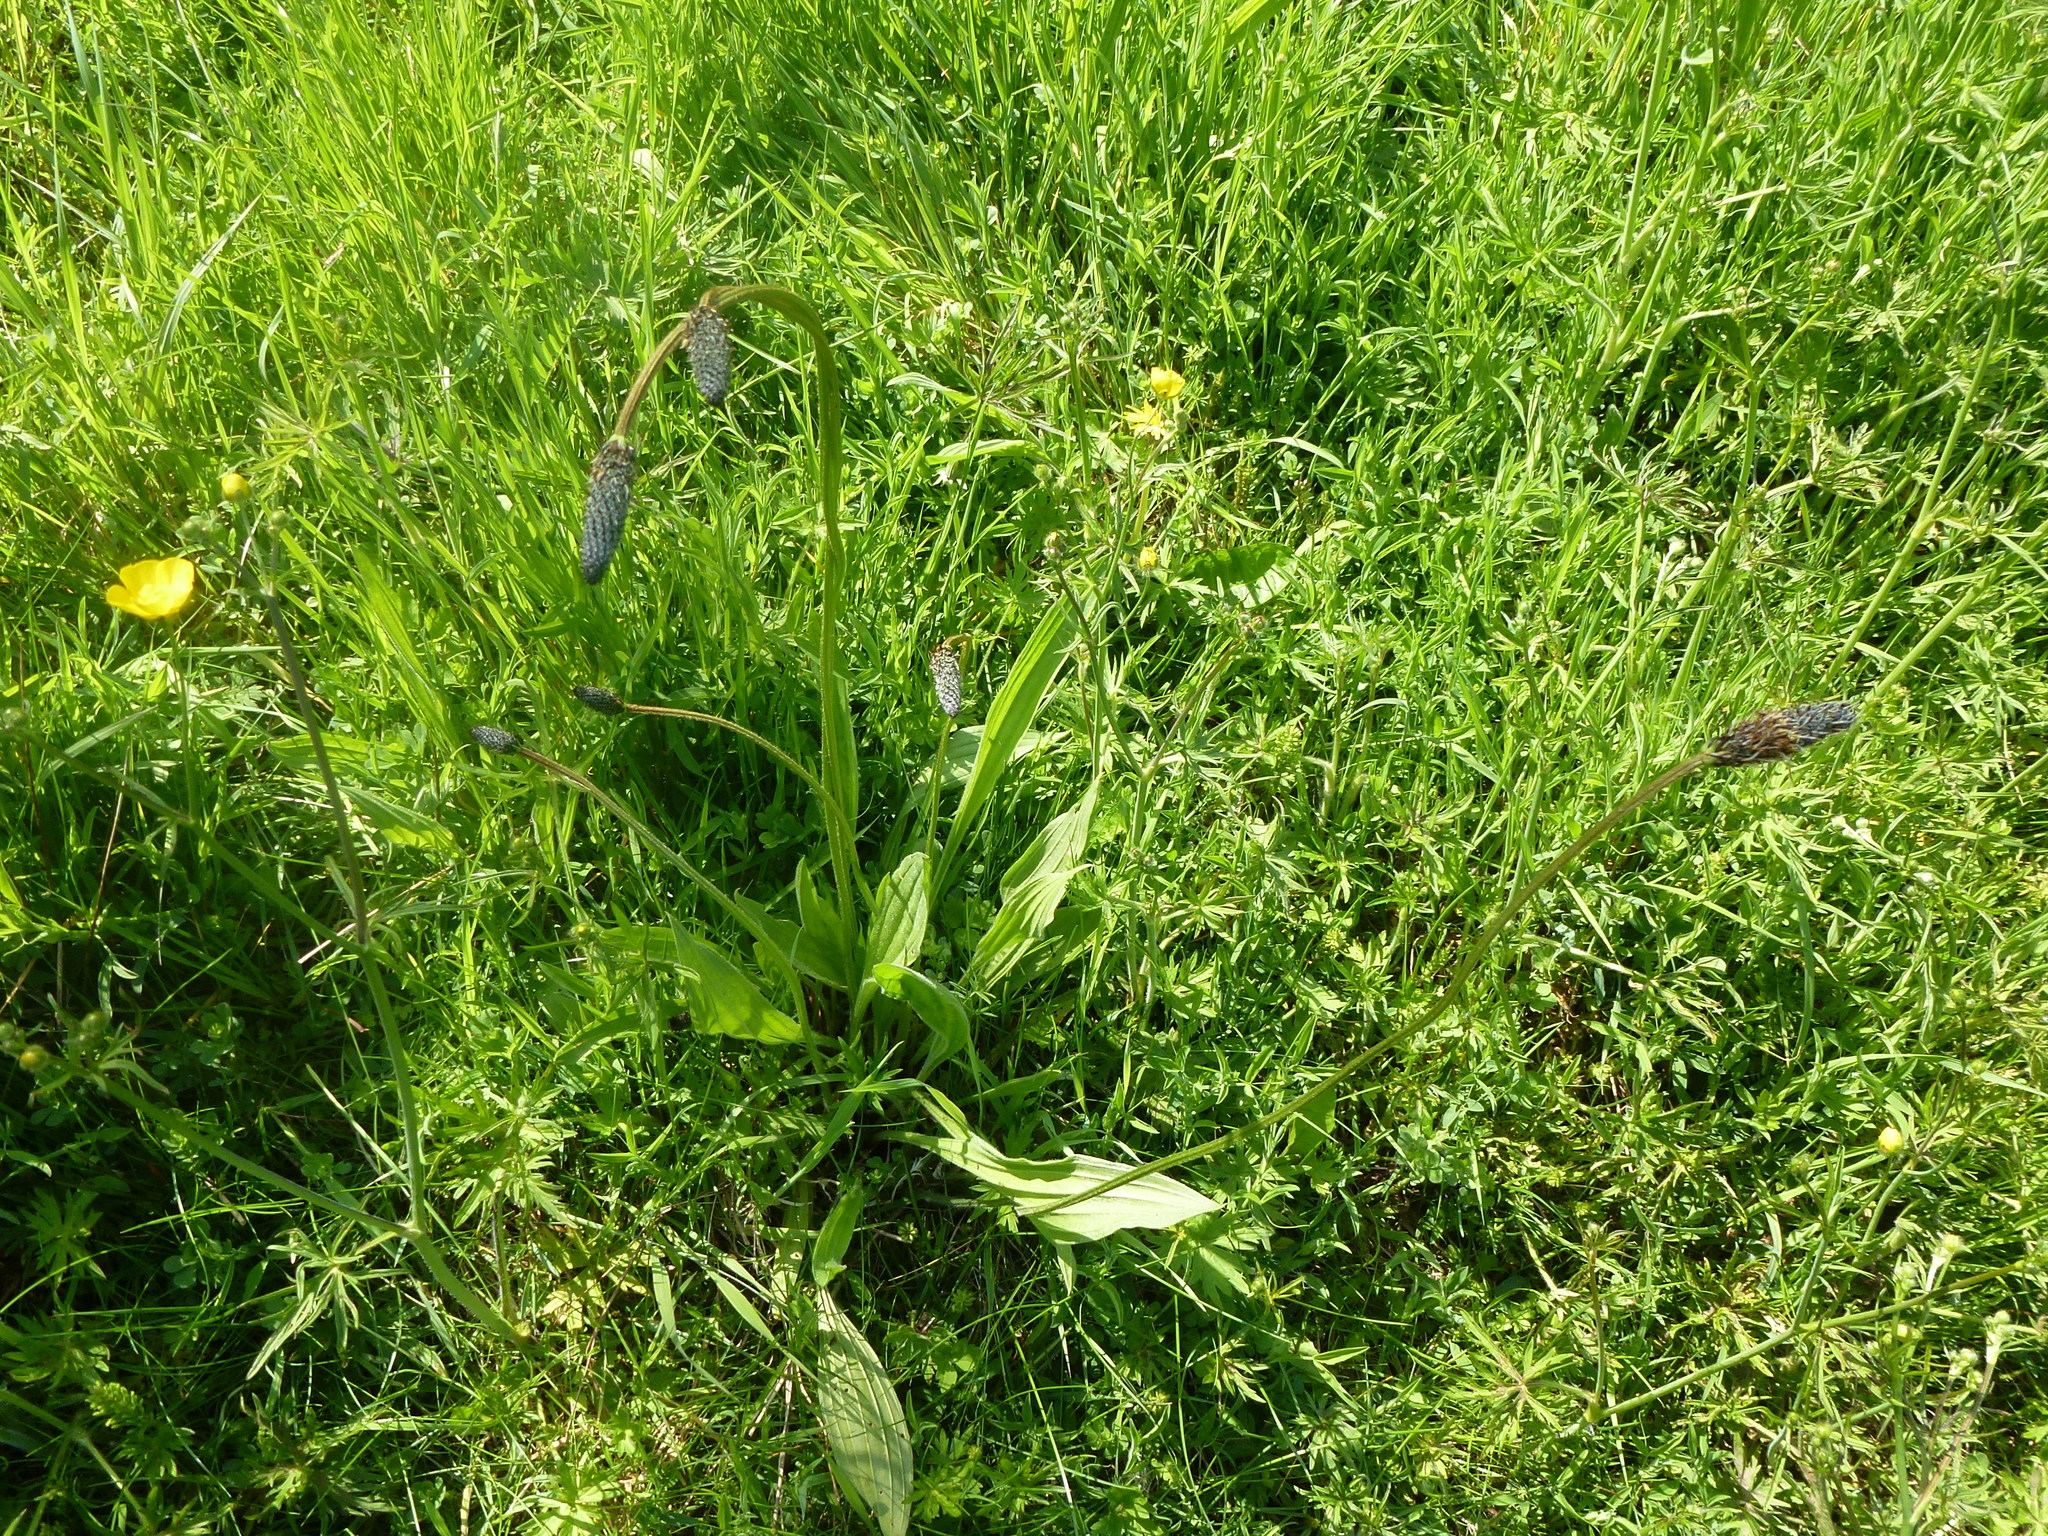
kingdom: Plantae
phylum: Tracheophyta
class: Magnoliopsida
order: Lamiales
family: Plantaginaceae
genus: Plantago
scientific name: Plantago lanceolata
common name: Ribwort plantain
